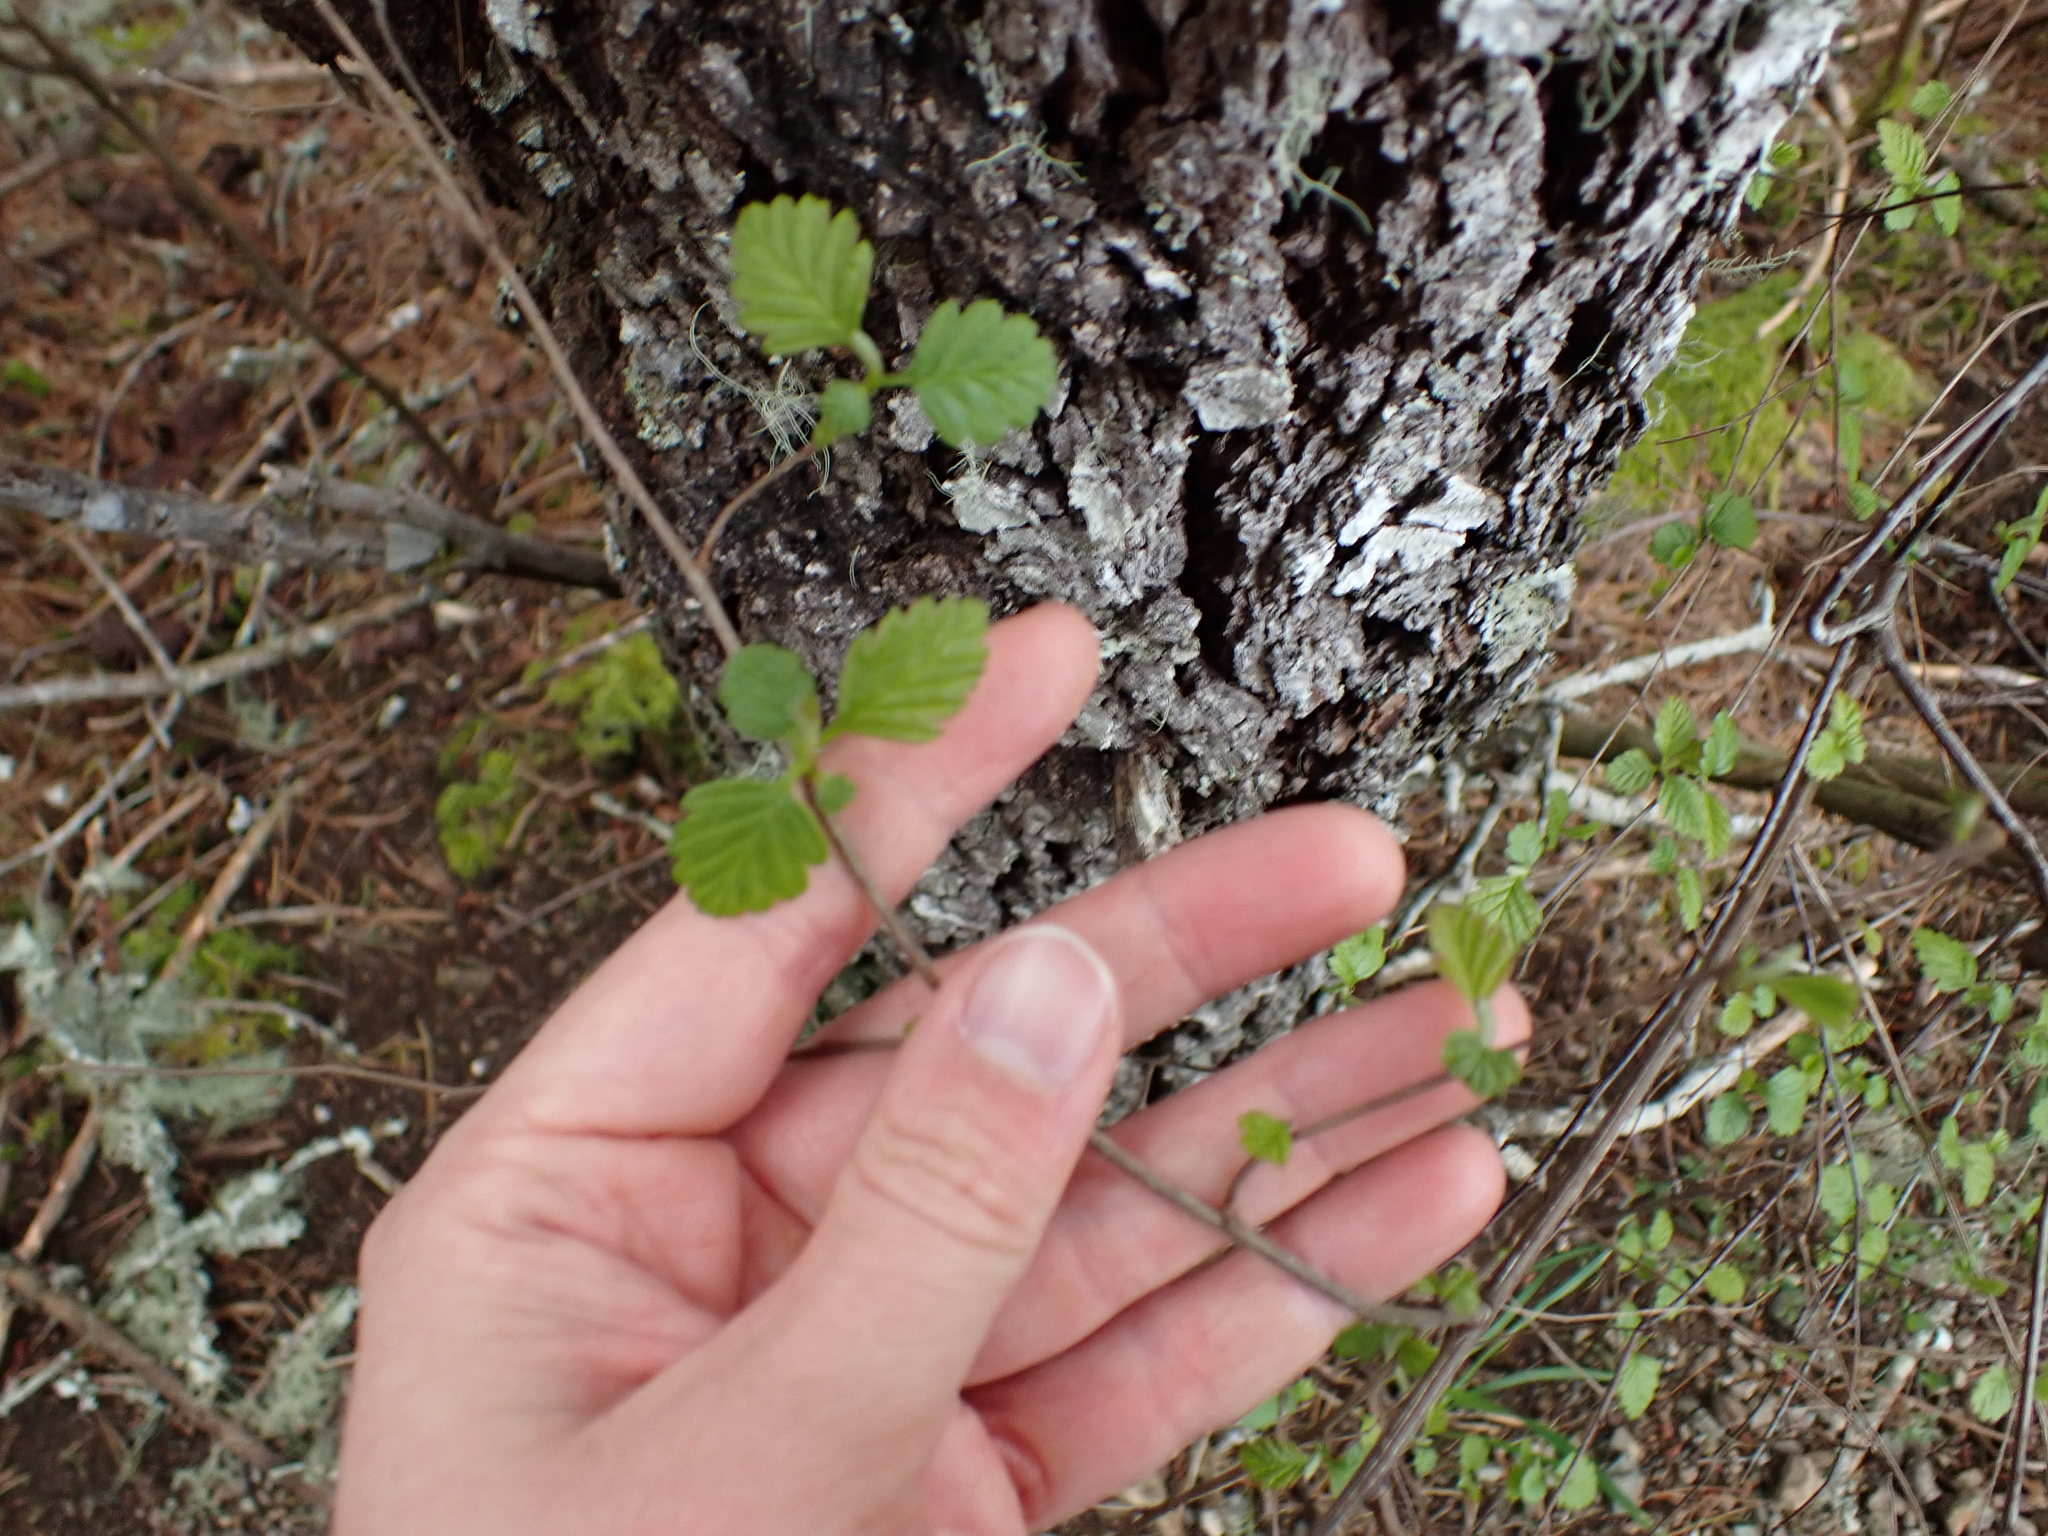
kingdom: Plantae
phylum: Tracheophyta
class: Magnoliopsida
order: Rosales
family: Rosaceae
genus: Holodiscus
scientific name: Holodiscus discolor
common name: Oceanspray
